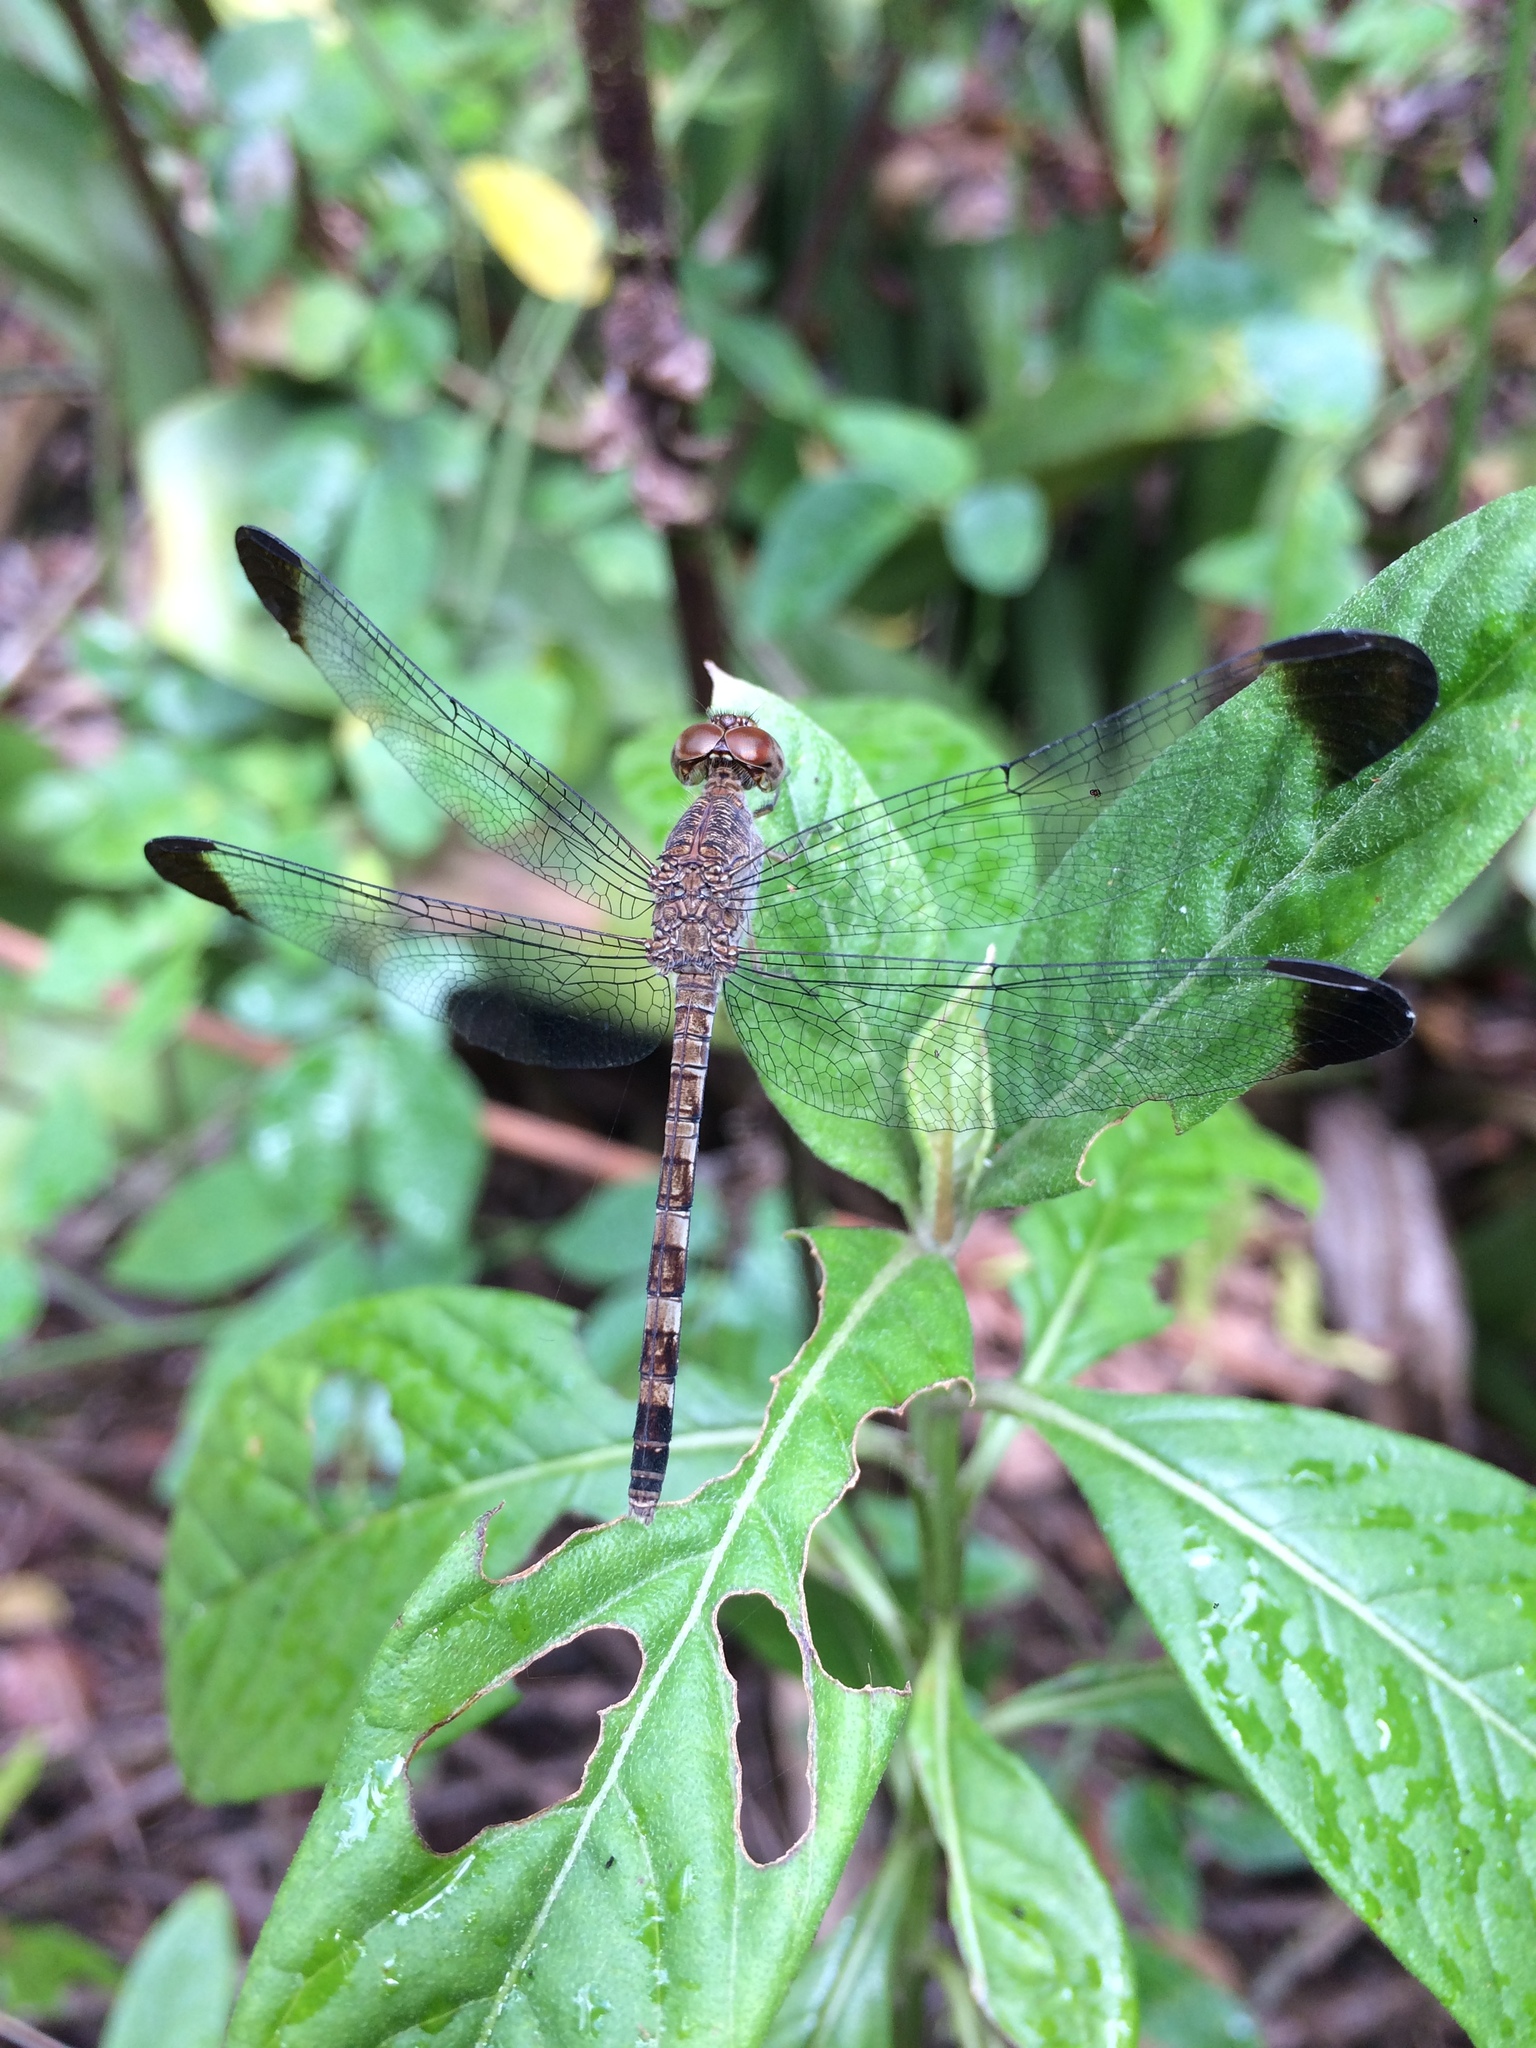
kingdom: Animalia
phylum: Arthropoda
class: Insecta
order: Odonata
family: Libellulidae
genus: Uracis
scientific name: Uracis imbuta
